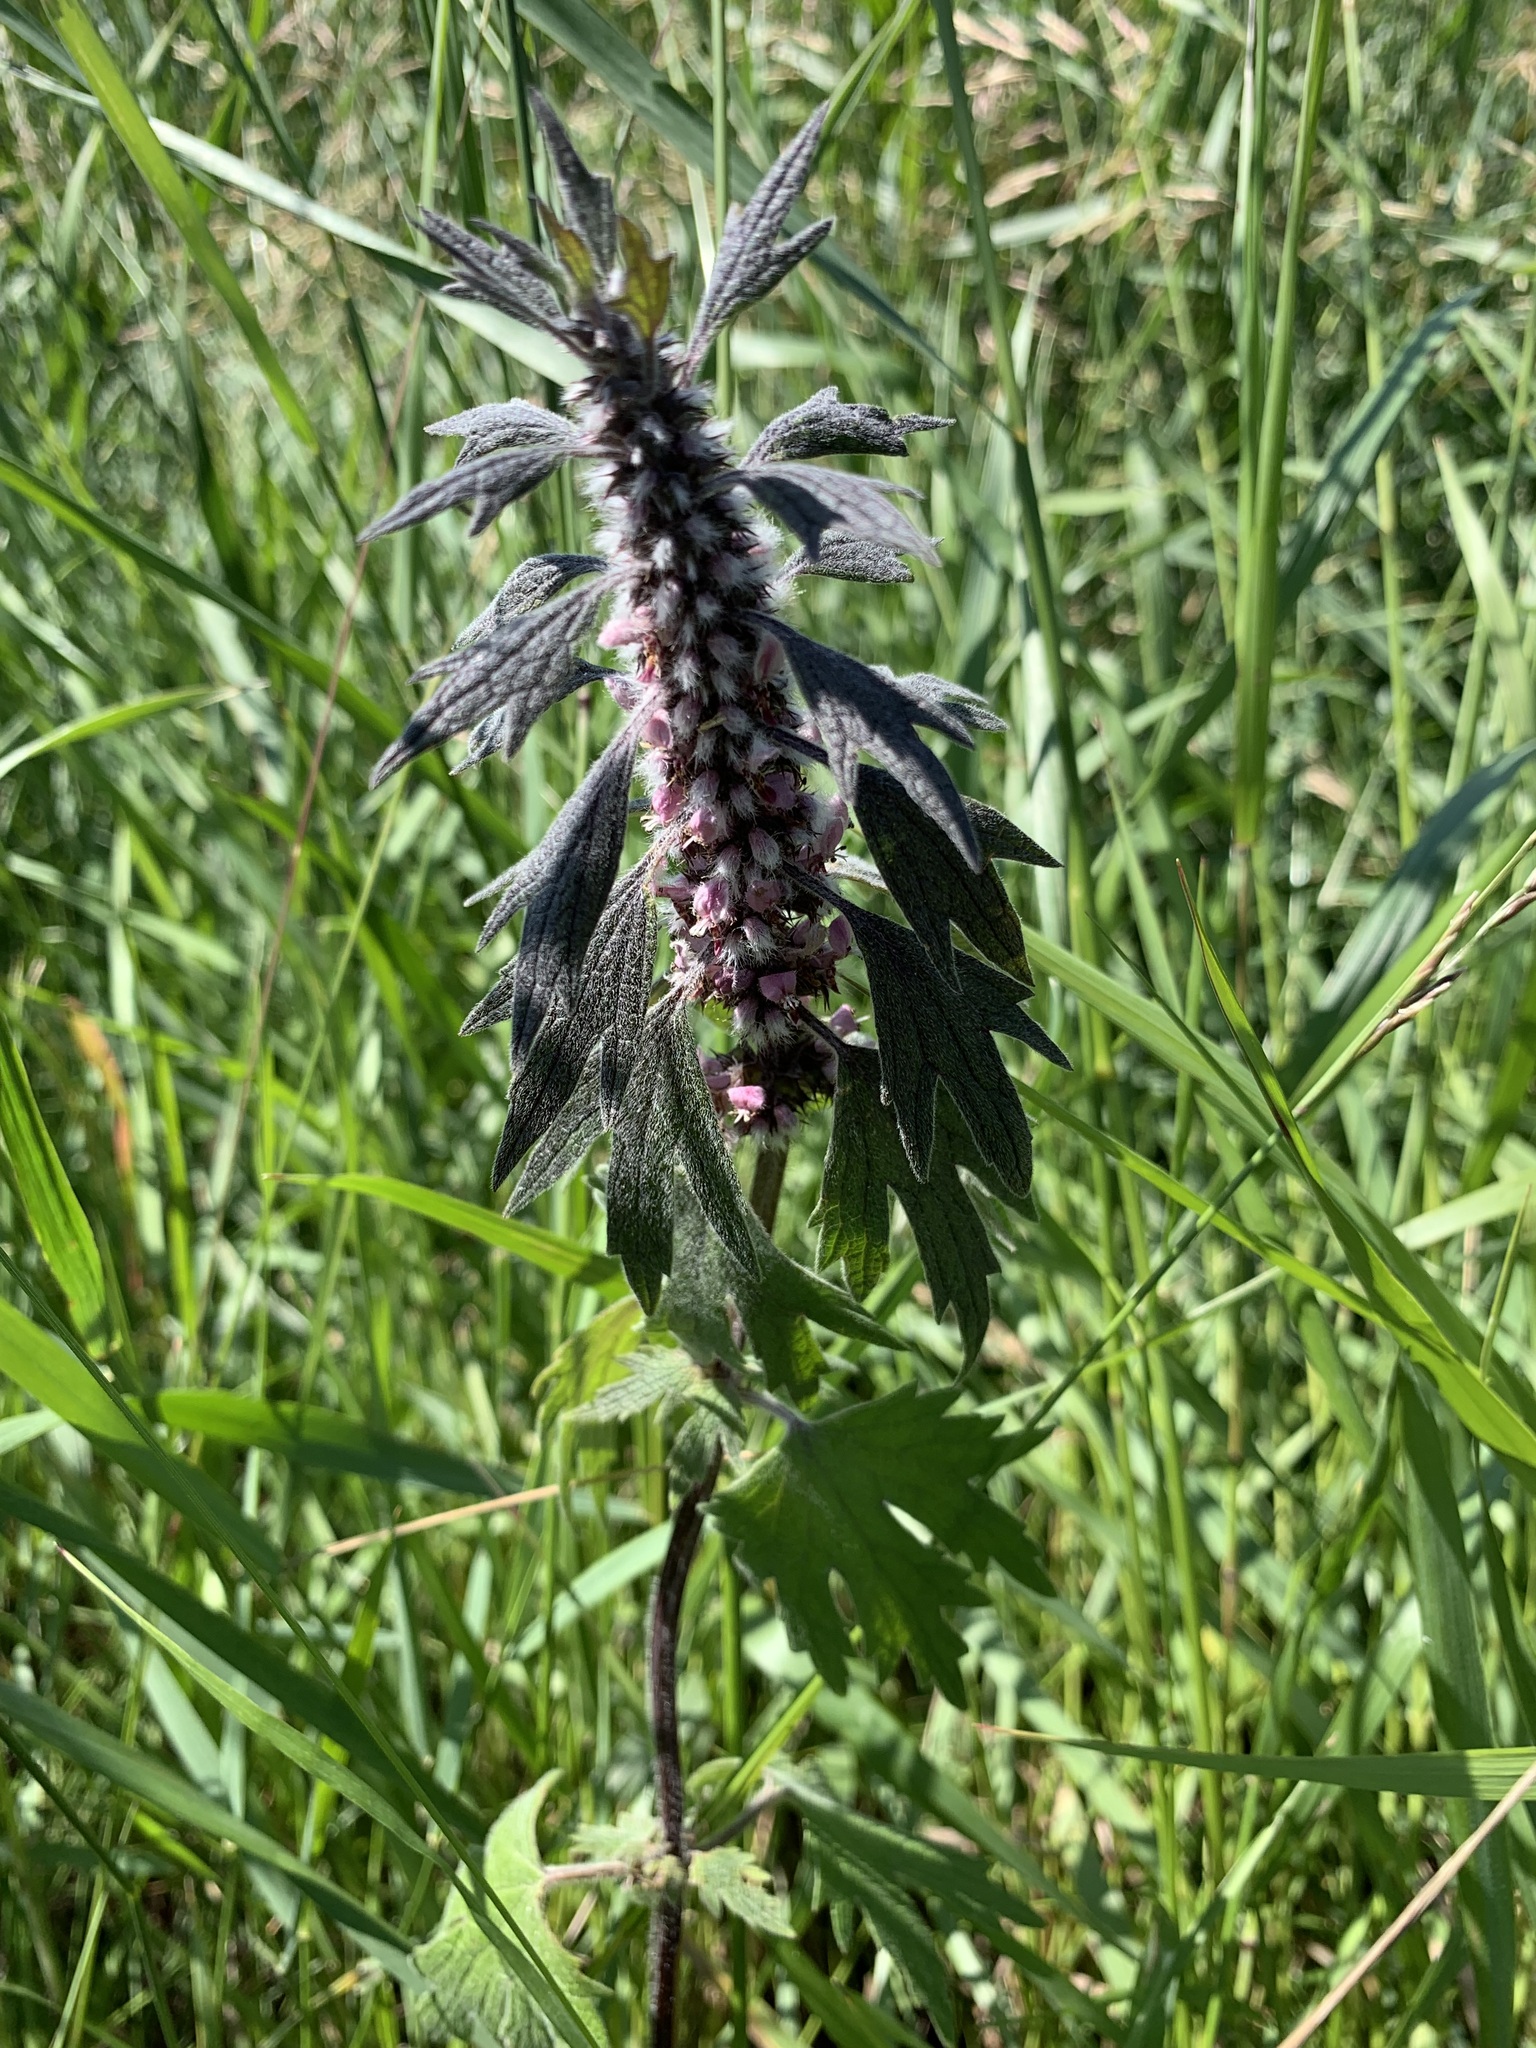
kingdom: Plantae
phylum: Tracheophyta
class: Magnoliopsida
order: Lamiales
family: Lamiaceae
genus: Leonurus
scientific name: Leonurus quinquelobatus
